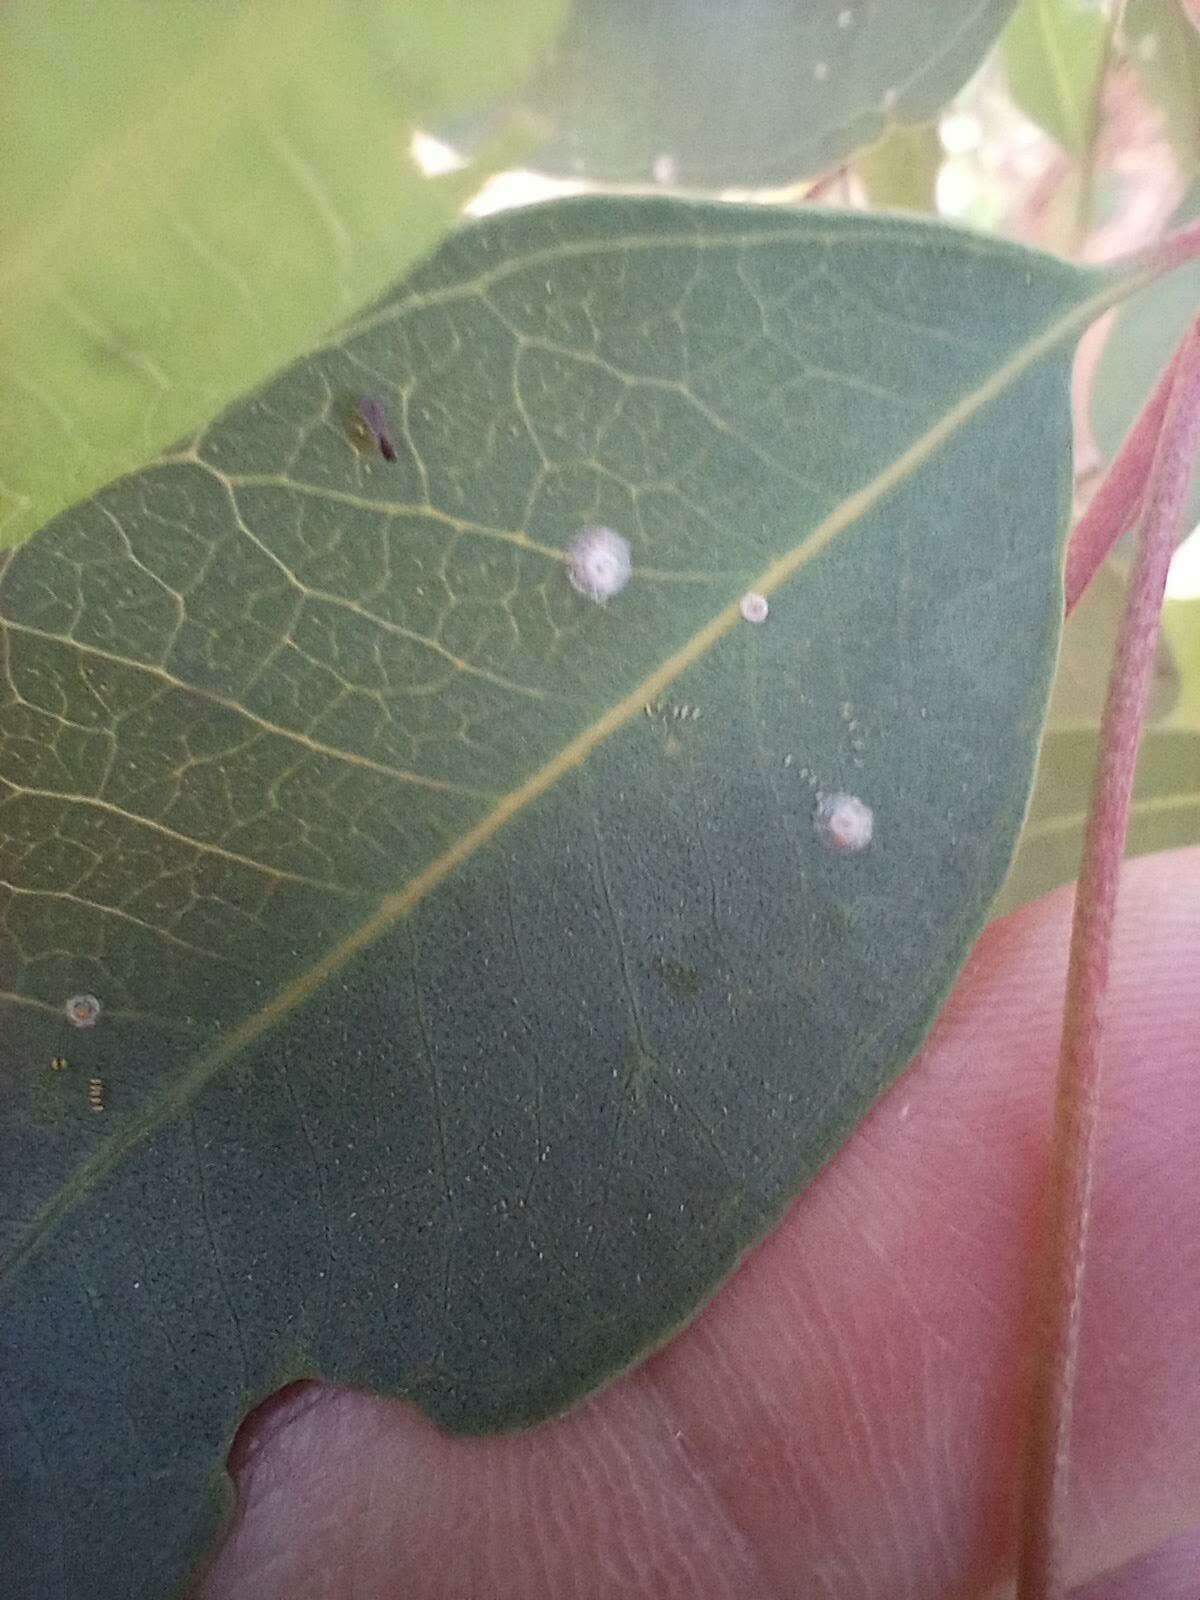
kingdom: Animalia
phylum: Arthropoda
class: Insecta
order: Hemiptera
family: Aphalaridae
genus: Glycaspis
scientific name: Glycaspis brimblecombei
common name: Red gum lerp psyllid
